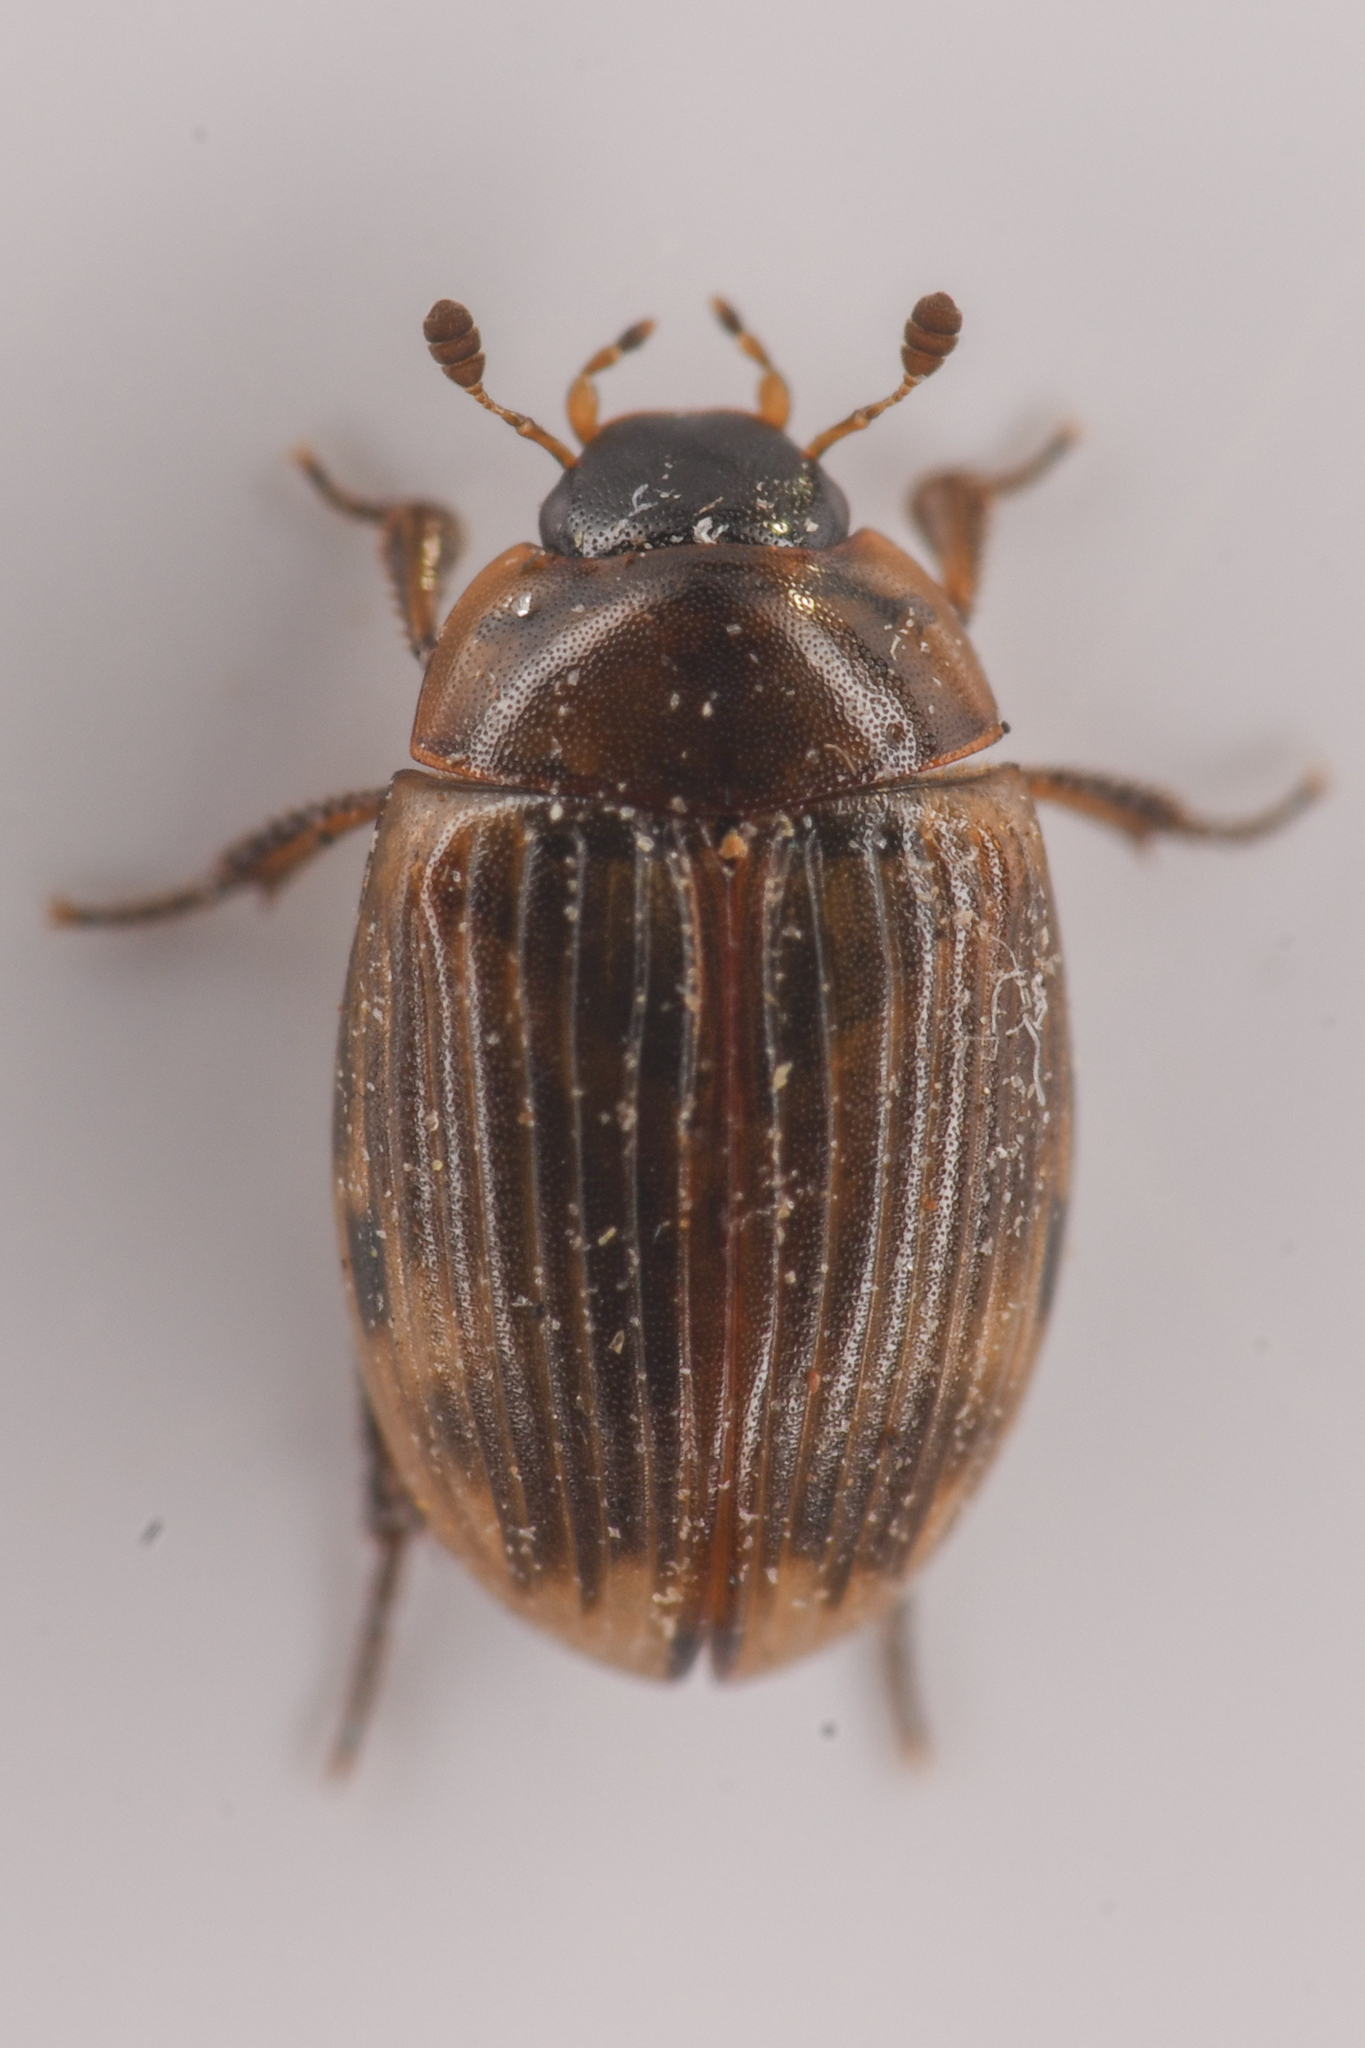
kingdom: Animalia
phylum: Arthropoda
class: Insecta
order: Coleoptera
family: Hydrophilidae
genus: Cercyon
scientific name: Cercyon fimbriatus
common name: Water scavenger beetle
